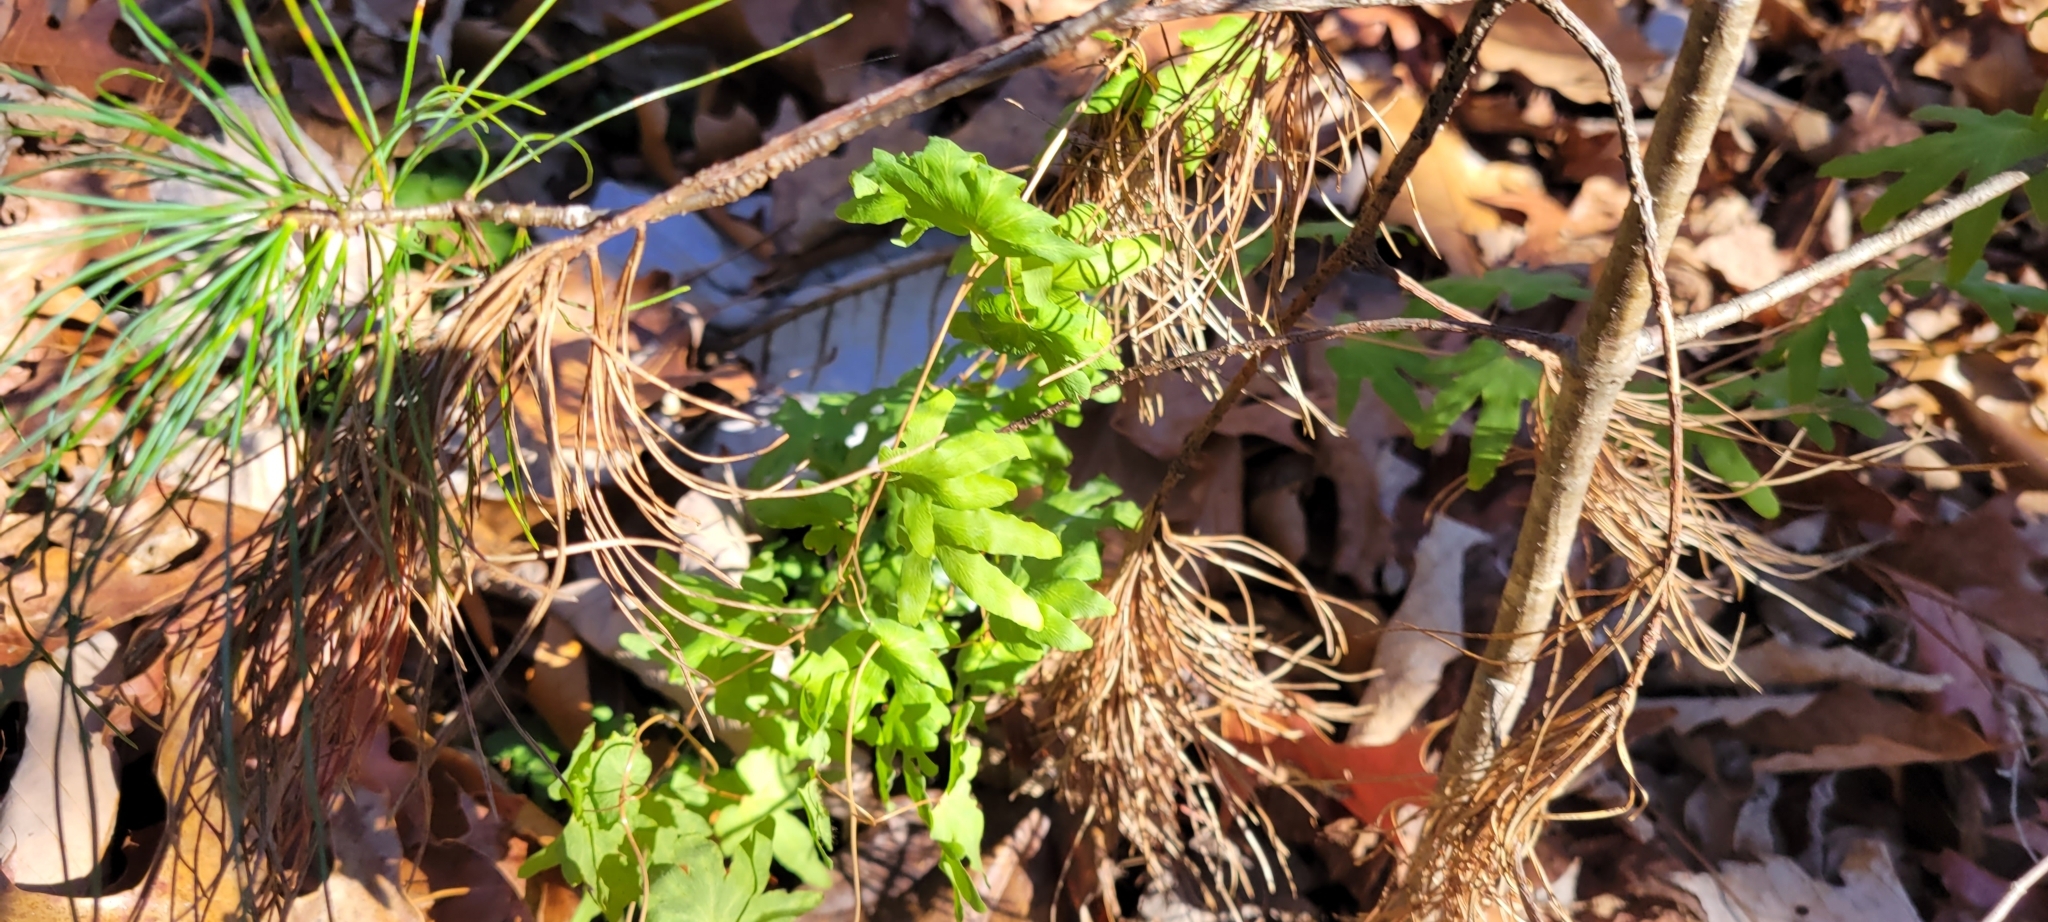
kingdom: Plantae
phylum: Tracheophyta
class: Polypodiopsida
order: Schizaeales
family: Lygodiaceae
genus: Lygodium
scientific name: Lygodium palmatum
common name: American climbing fern
